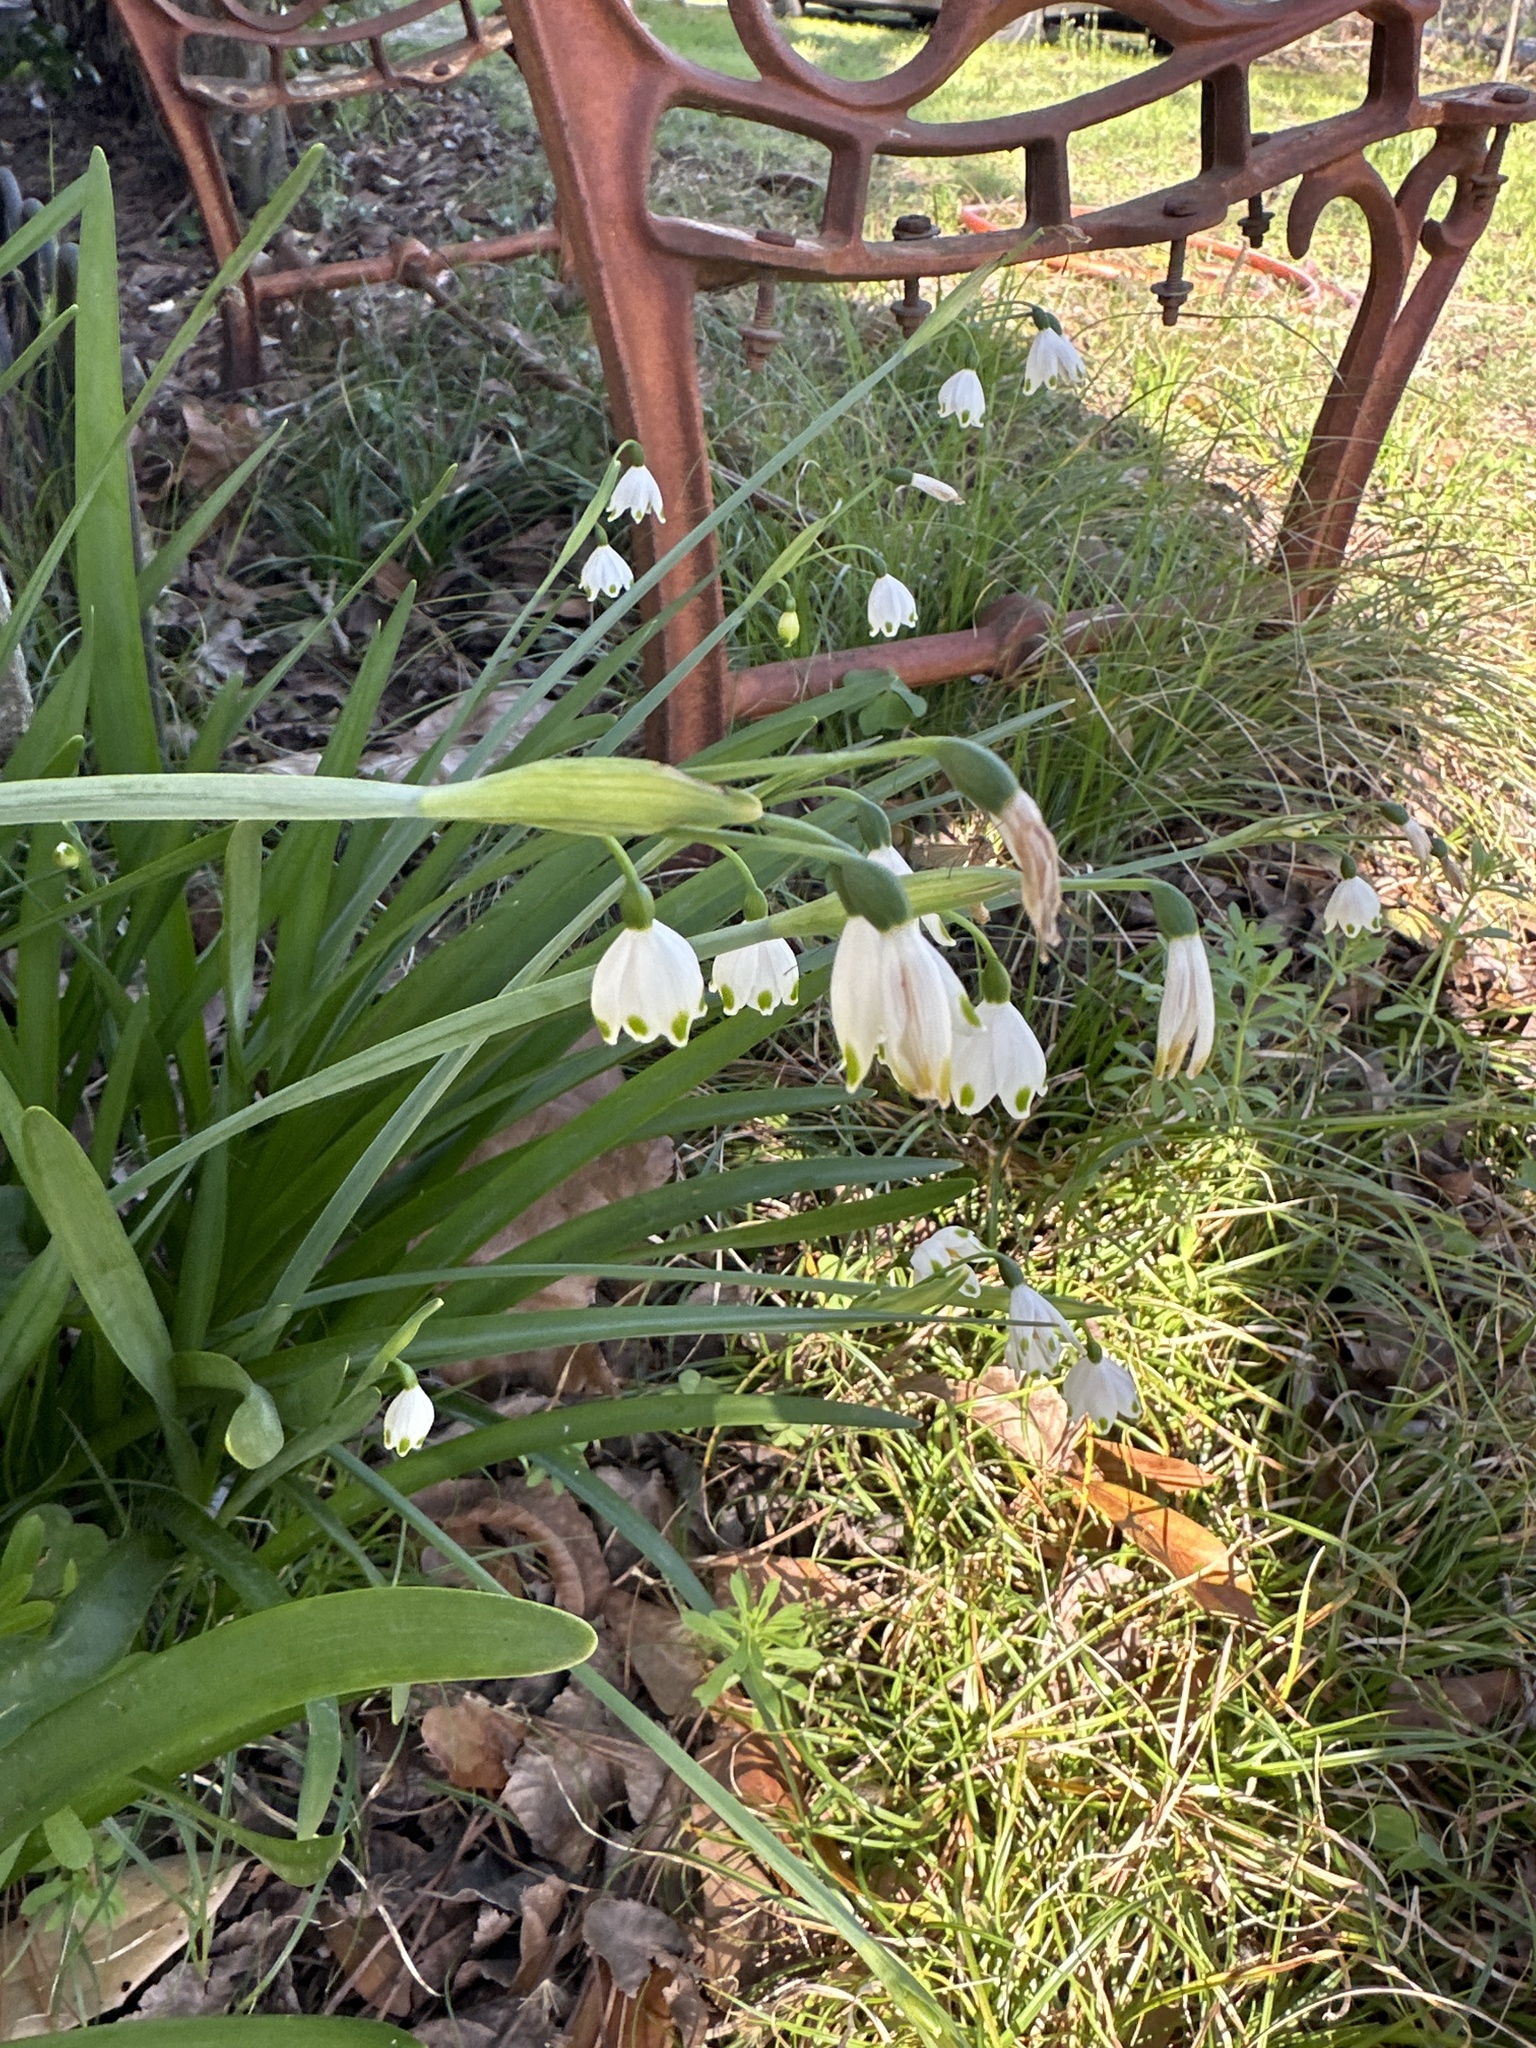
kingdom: Plantae
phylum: Tracheophyta
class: Liliopsida
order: Asparagales
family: Amaryllidaceae
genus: Leucojum
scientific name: Leucojum aestivum
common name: Summer snowflake
